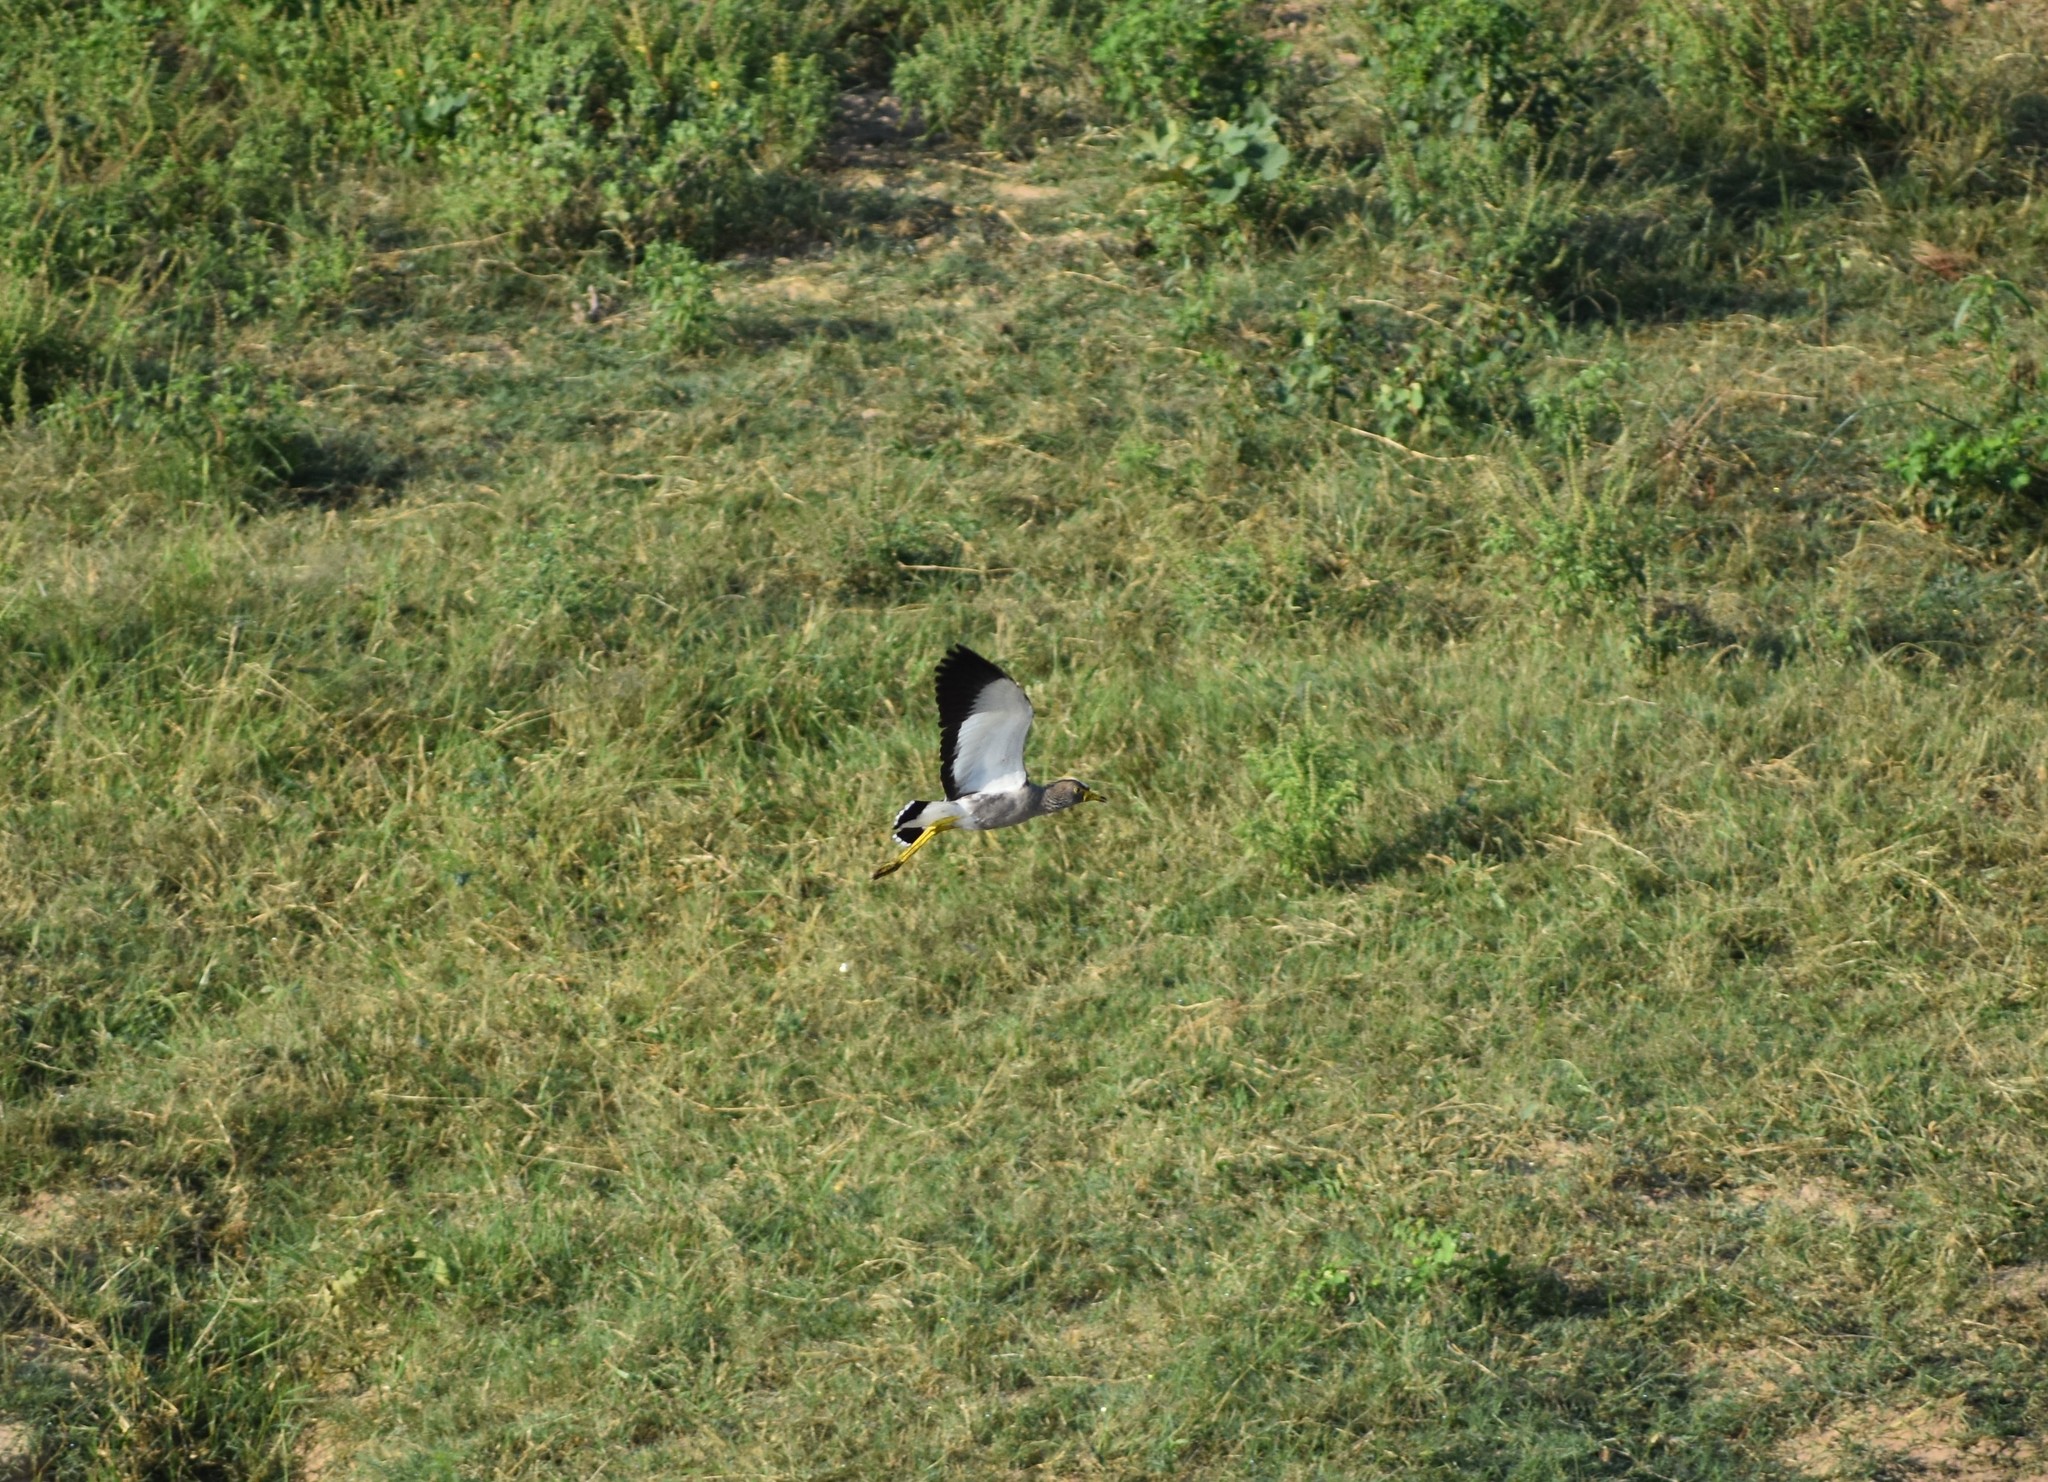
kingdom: Animalia
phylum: Chordata
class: Aves
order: Charadriiformes
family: Charadriidae
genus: Vanellus
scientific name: Vanellus senegallus
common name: African wattled lapwing
